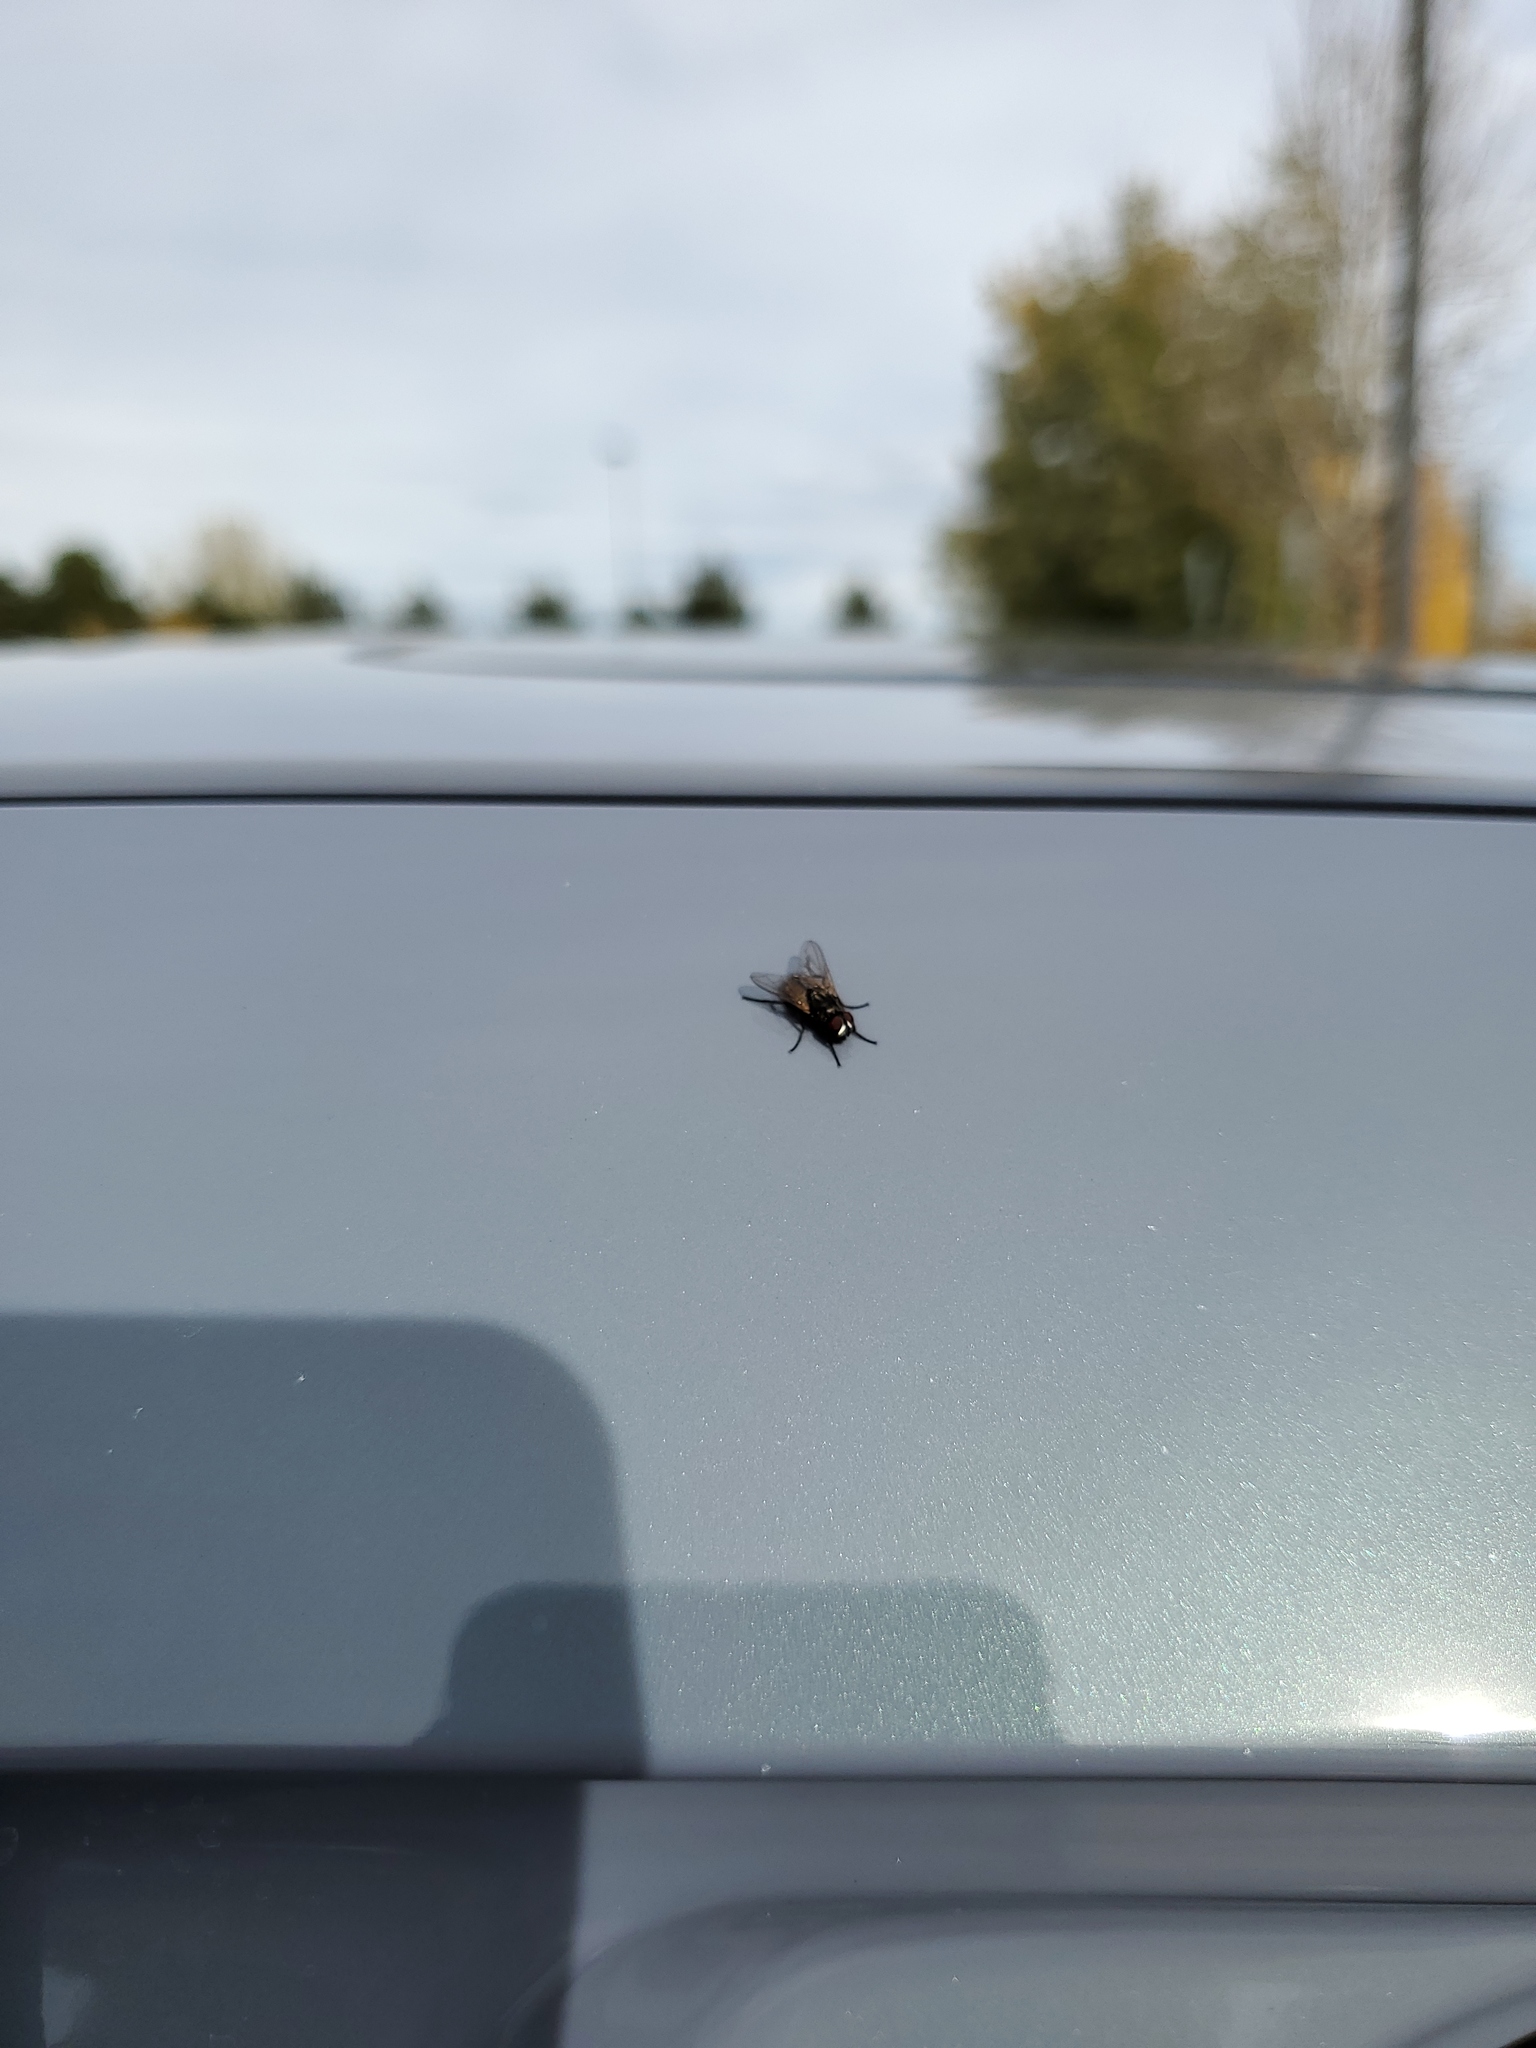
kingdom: Animalia
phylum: Arthropoda
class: Insecta
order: Diptera
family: Muscidae
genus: Musca
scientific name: Musca domestica
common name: House fly
